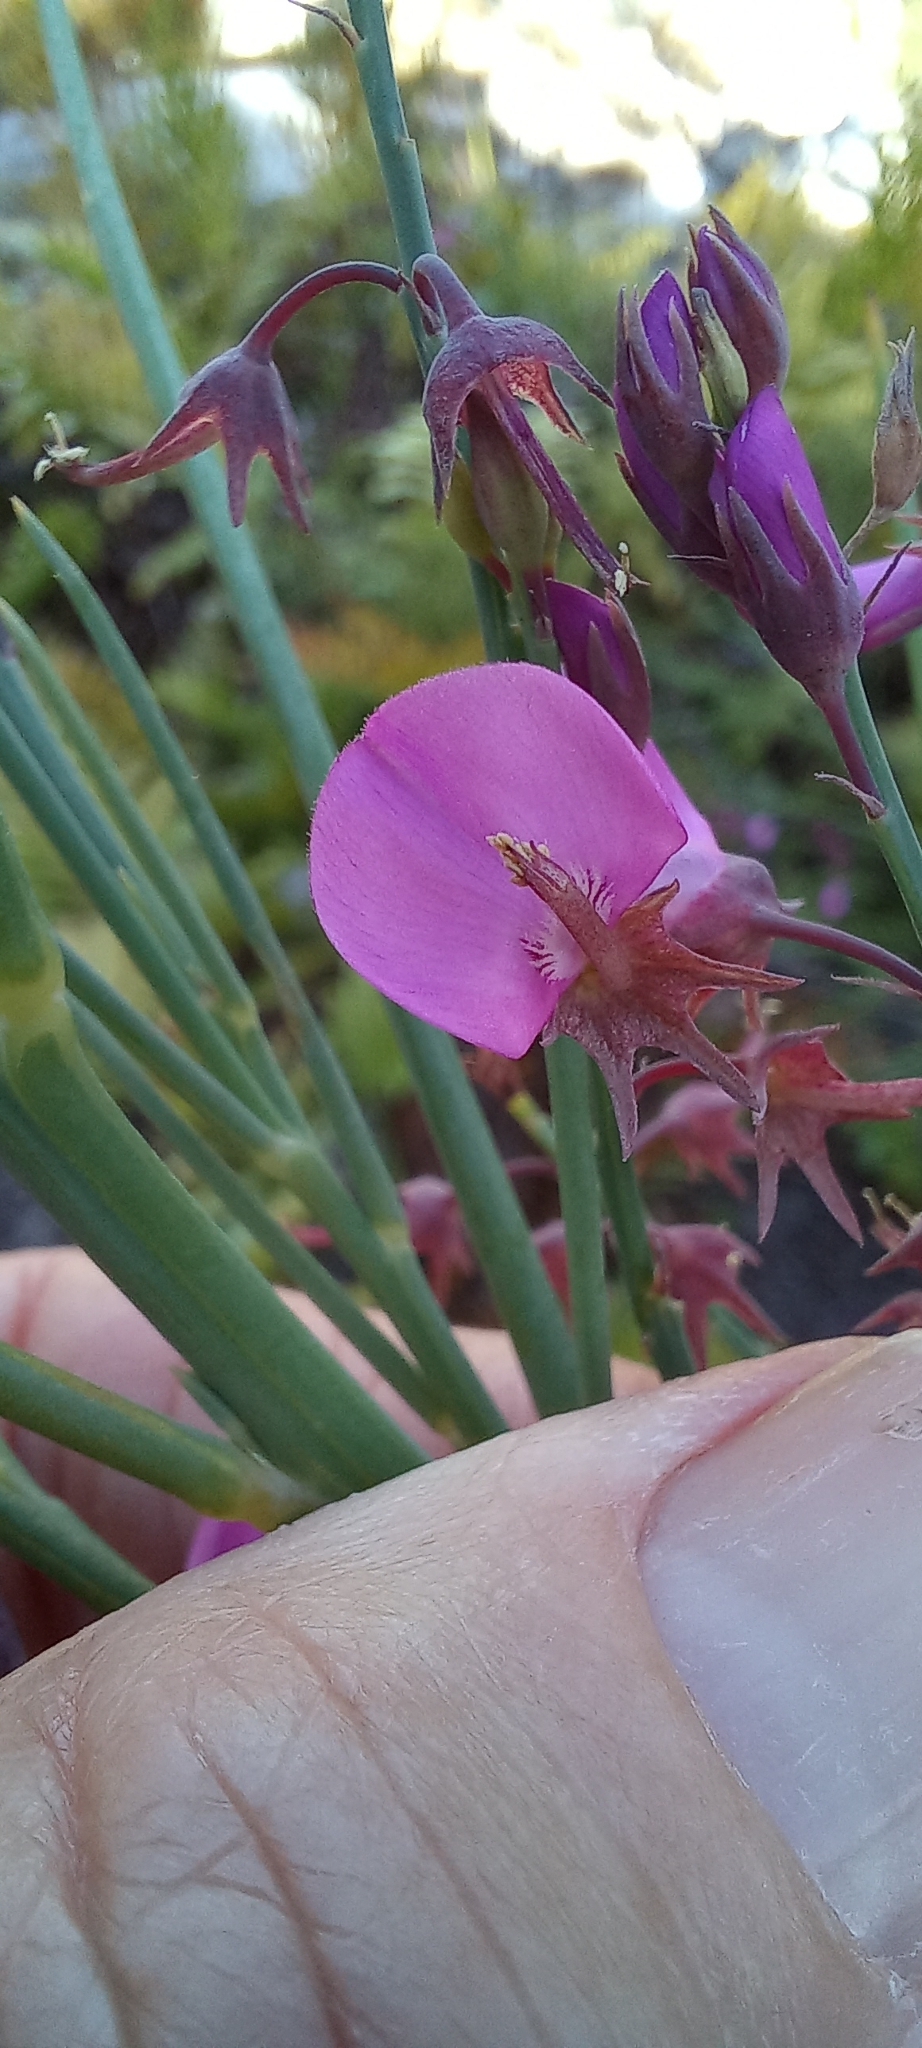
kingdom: Plantae
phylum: Tracheophyta
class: Magnoliopsida
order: Fabales
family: Fabaceae
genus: Indigofera
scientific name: Indigofera filifolia
